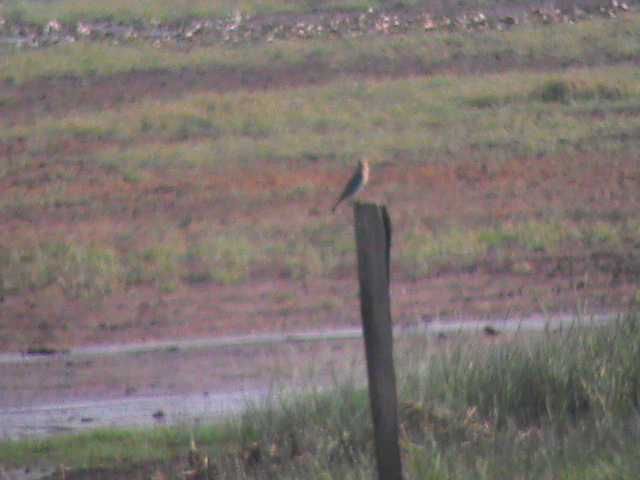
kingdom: Animalia
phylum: Chordata
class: Aves
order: Coraciiformes
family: Coraciidae
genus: Coracias
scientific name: Coracias benghalensis
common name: Indian roller
